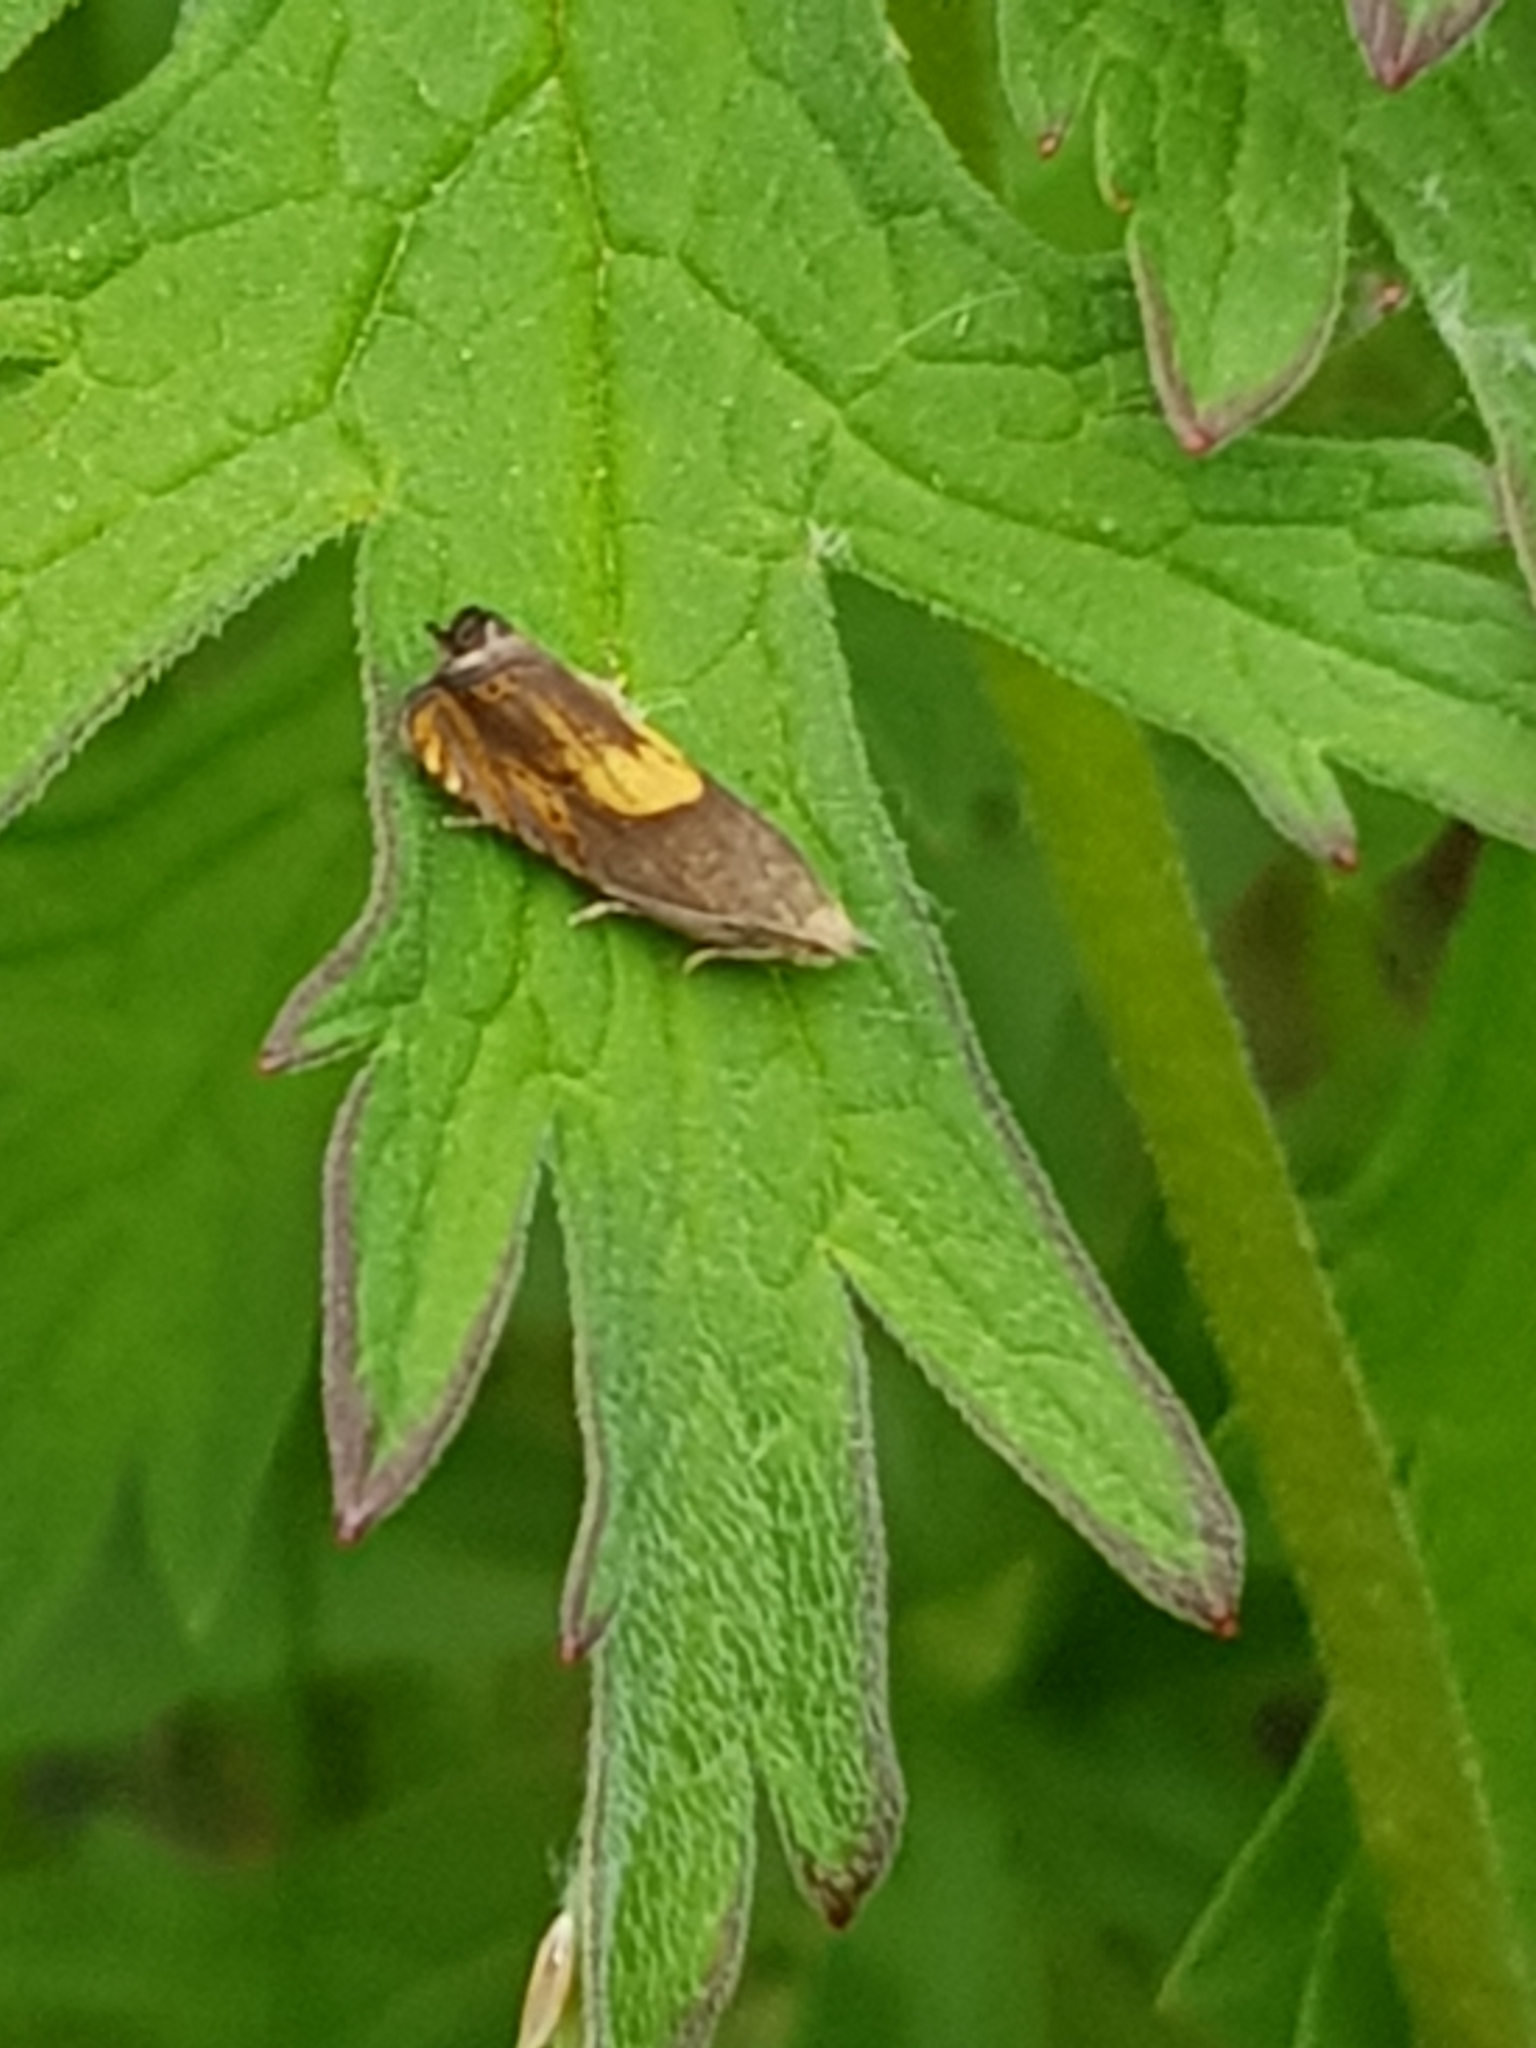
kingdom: Animalia
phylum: Arthropoda
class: Insecta
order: Lepidoptera
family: Tortricidae
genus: Pammene
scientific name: Pammene regiana
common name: Regal piercer
